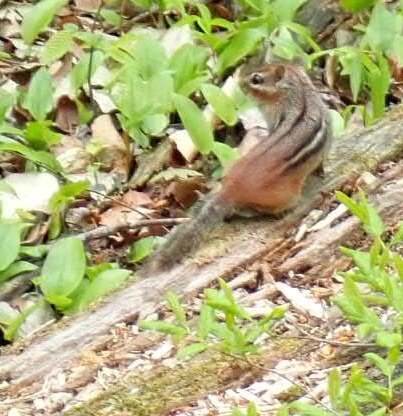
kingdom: Animalia
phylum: Chordata
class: Mammalia
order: Rodentia
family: Sciuridae
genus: Tamias
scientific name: Tamias striatus
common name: Eastern chipmunk
